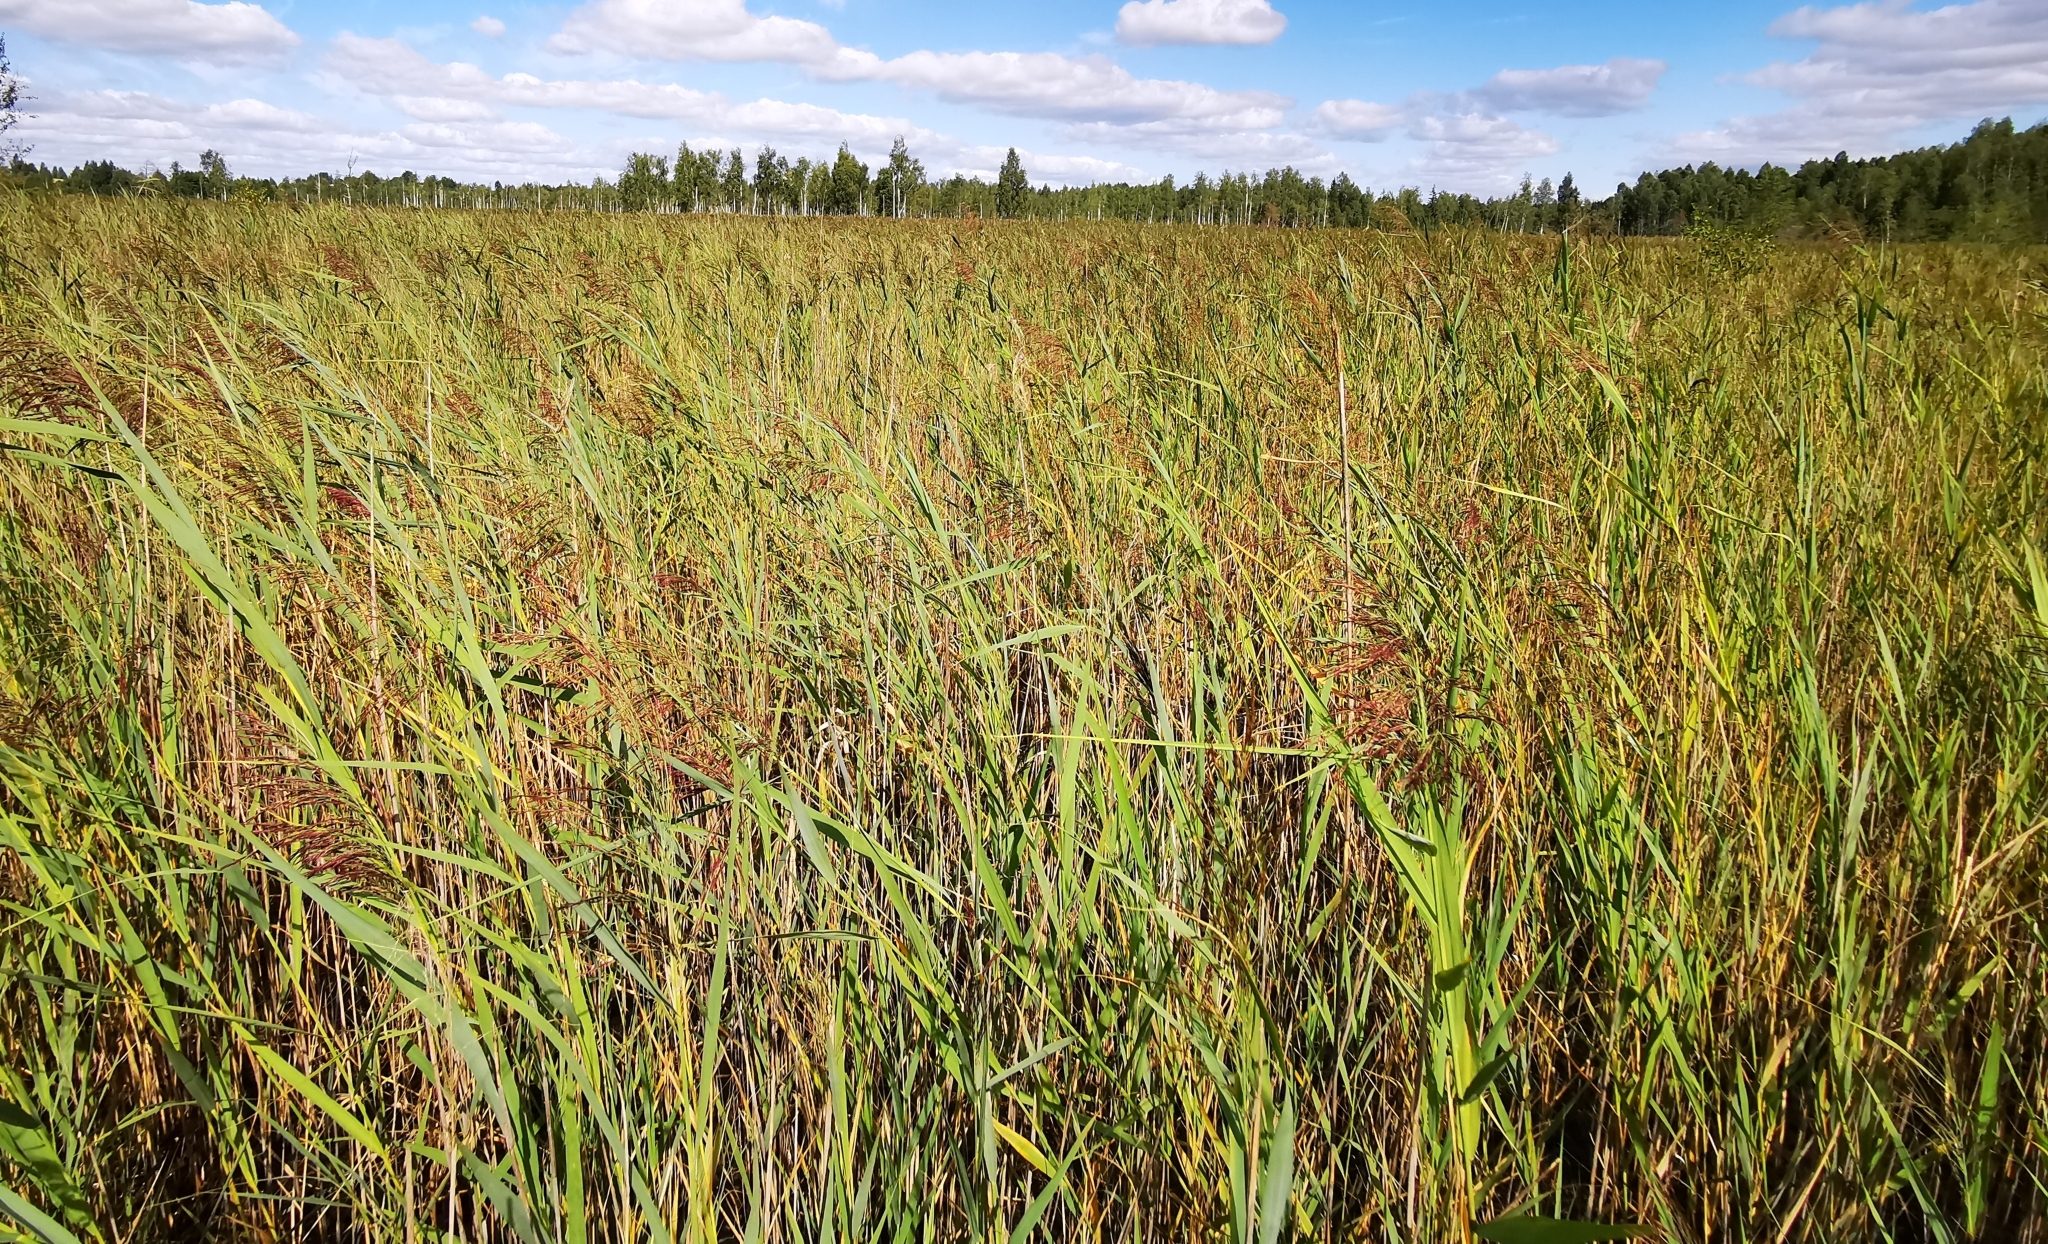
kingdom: Plantae
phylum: Tracheophyta
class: Liliopsida
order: Poales
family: Poaceae
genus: Phragmites
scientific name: Phragmites australis
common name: Common reed
